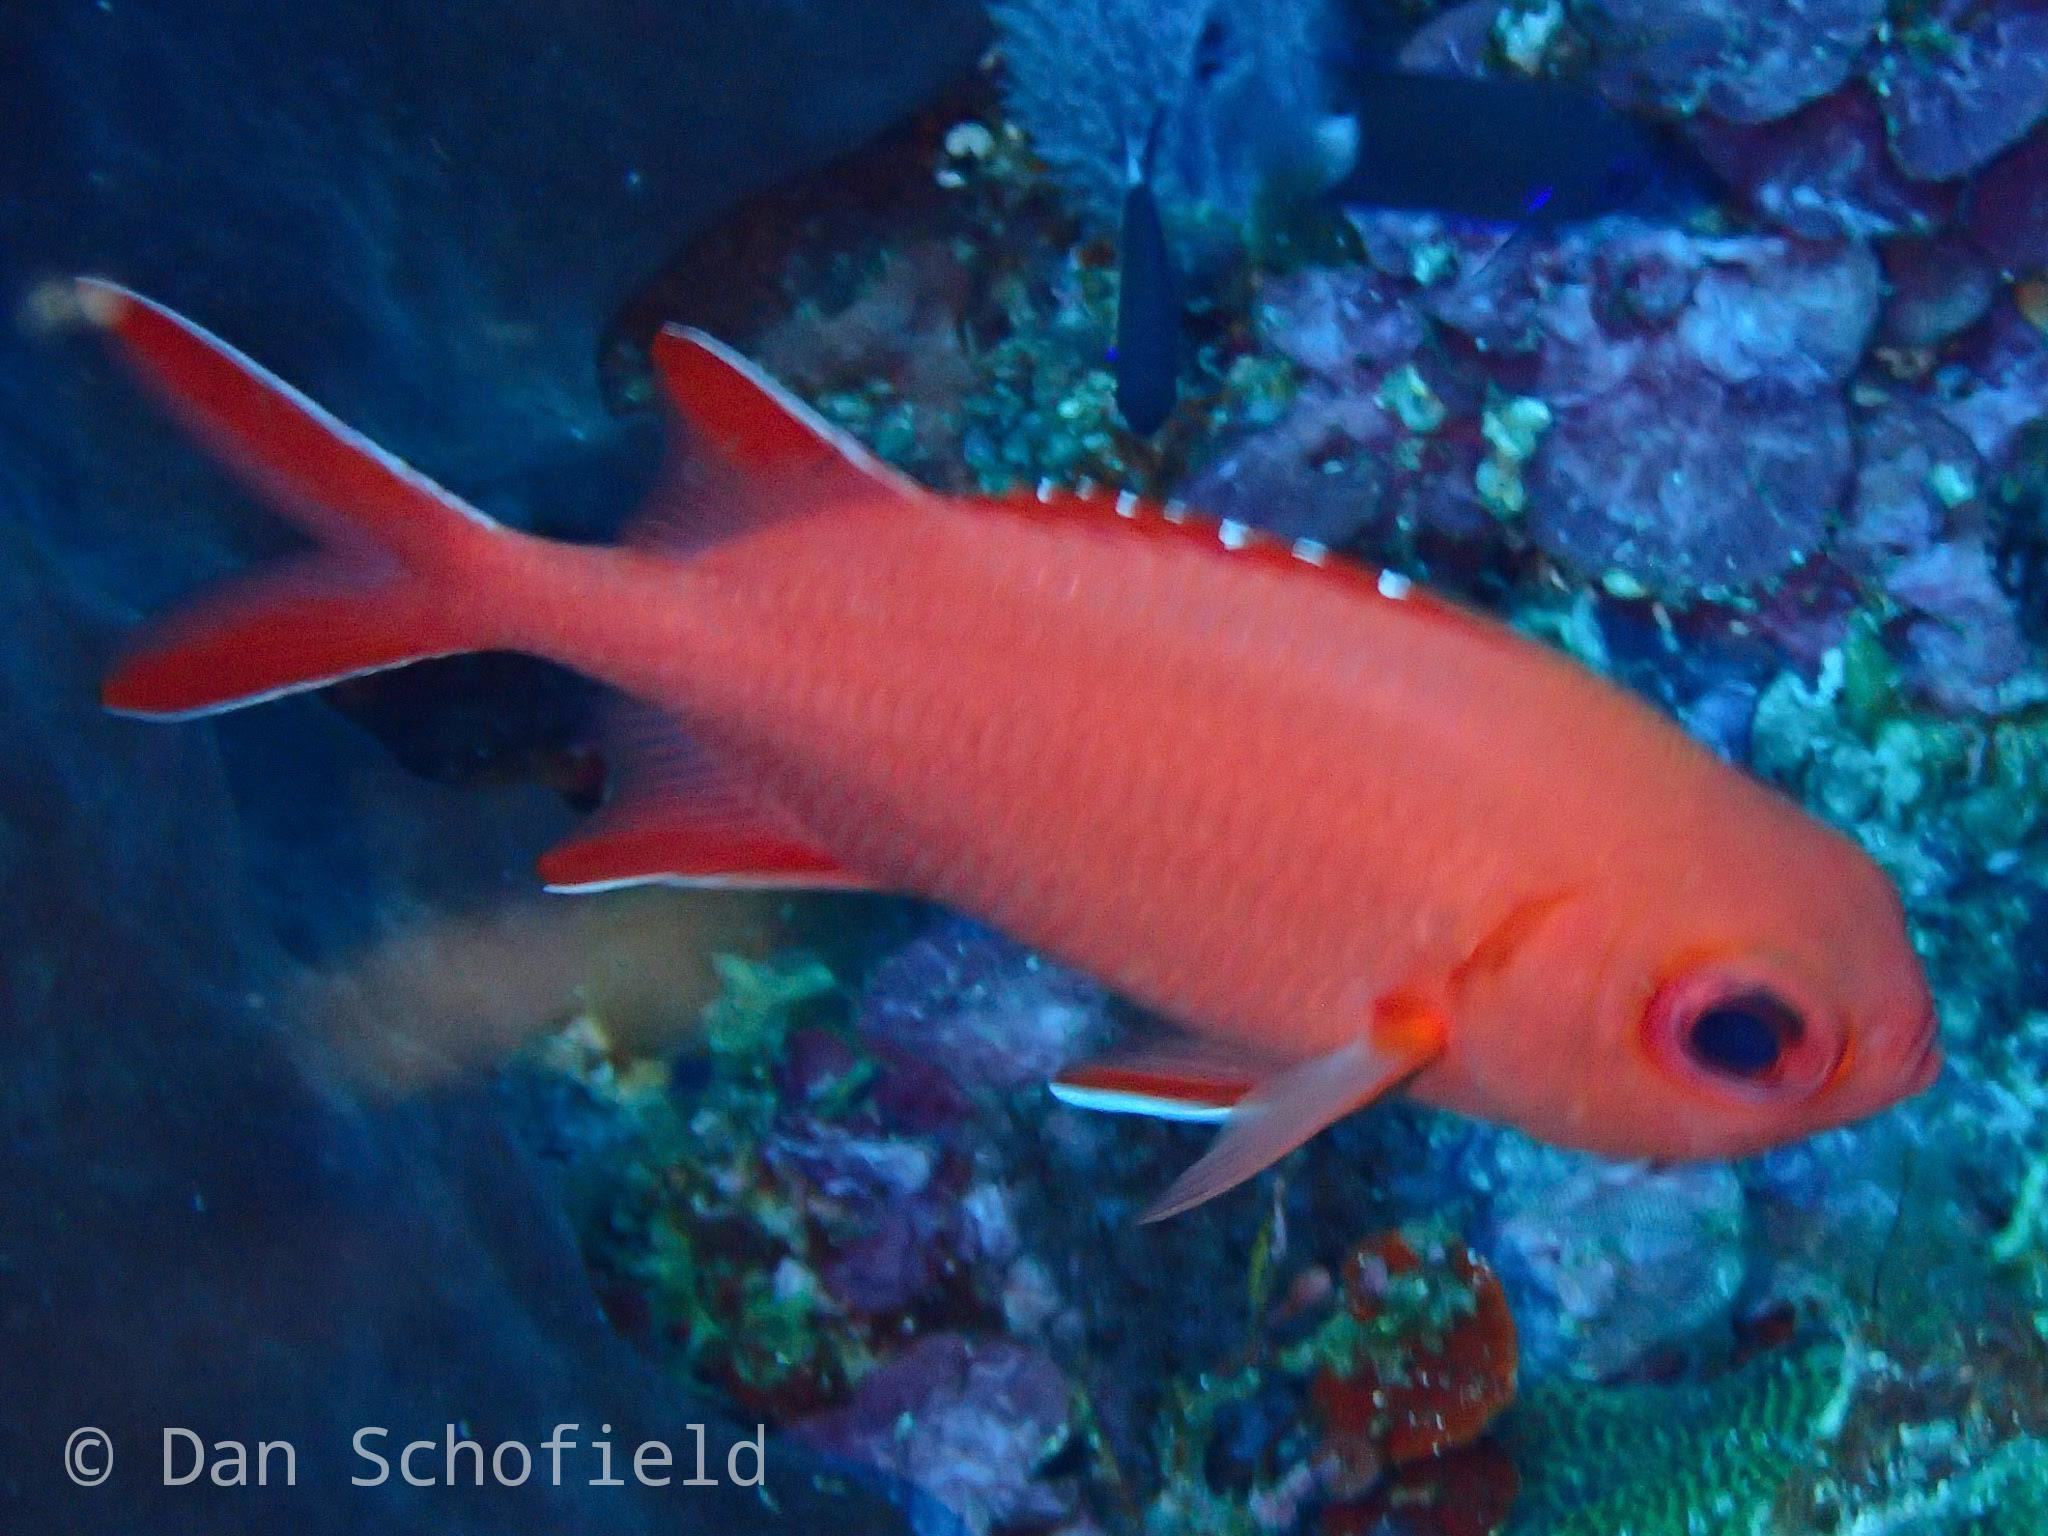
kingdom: Animalia
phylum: Chordata
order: Beryciformes
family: Holocentridae
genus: Myripristis
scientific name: Myripristis vittata
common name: Immaculate squirrelfish
